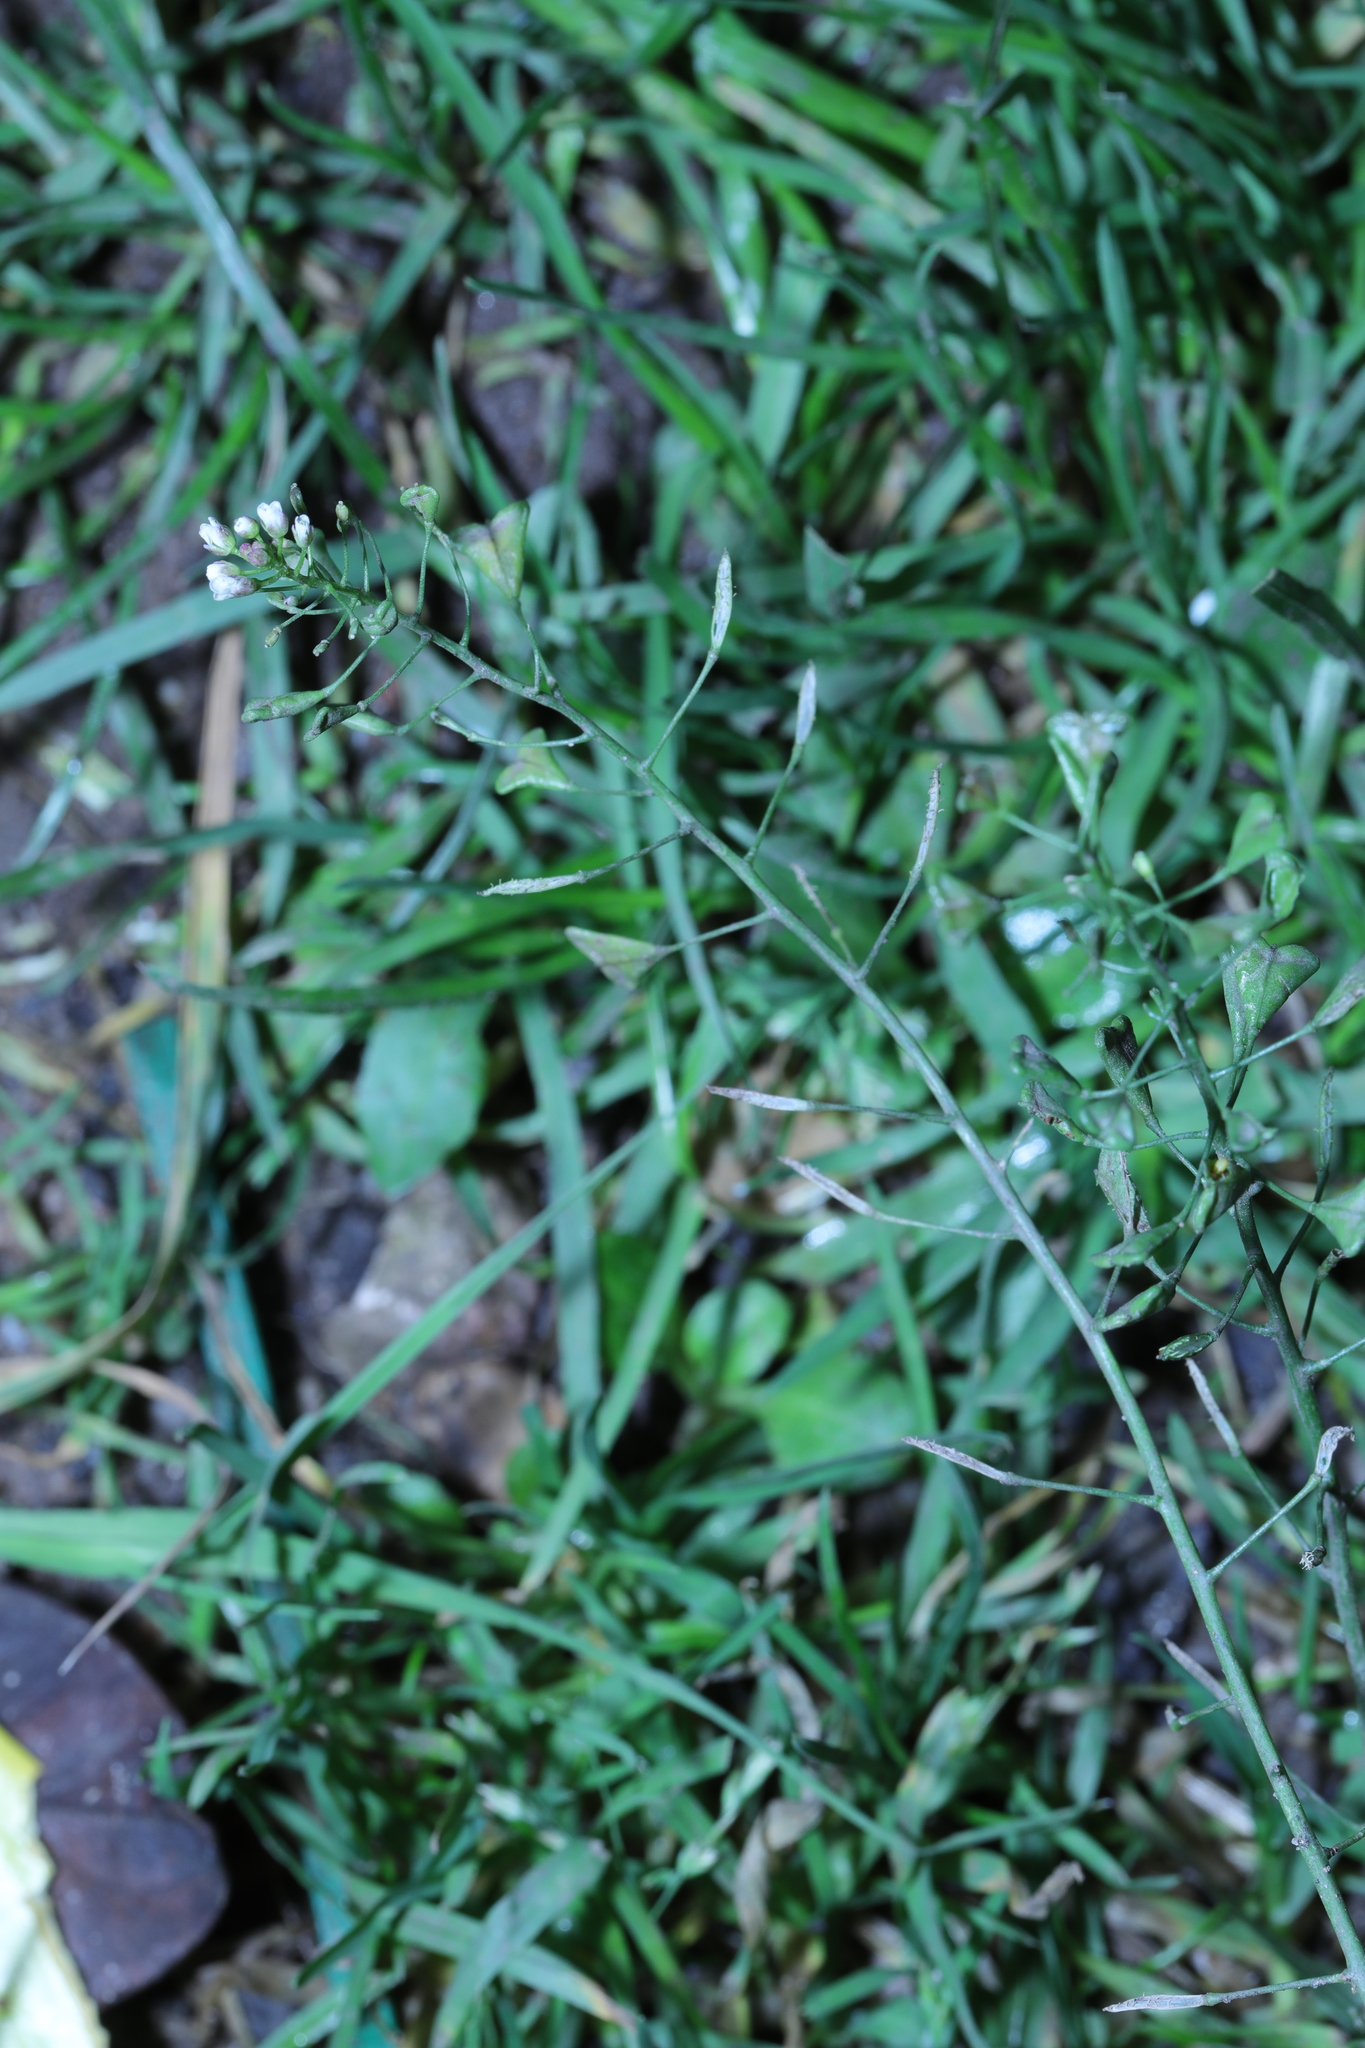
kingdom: Plantae
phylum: Tracheophyta
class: Magnoliopsida
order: Brassicales
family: Brassicaceae
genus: Capsella
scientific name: Capsella bursa-pastoris
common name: Shepherd's purse
